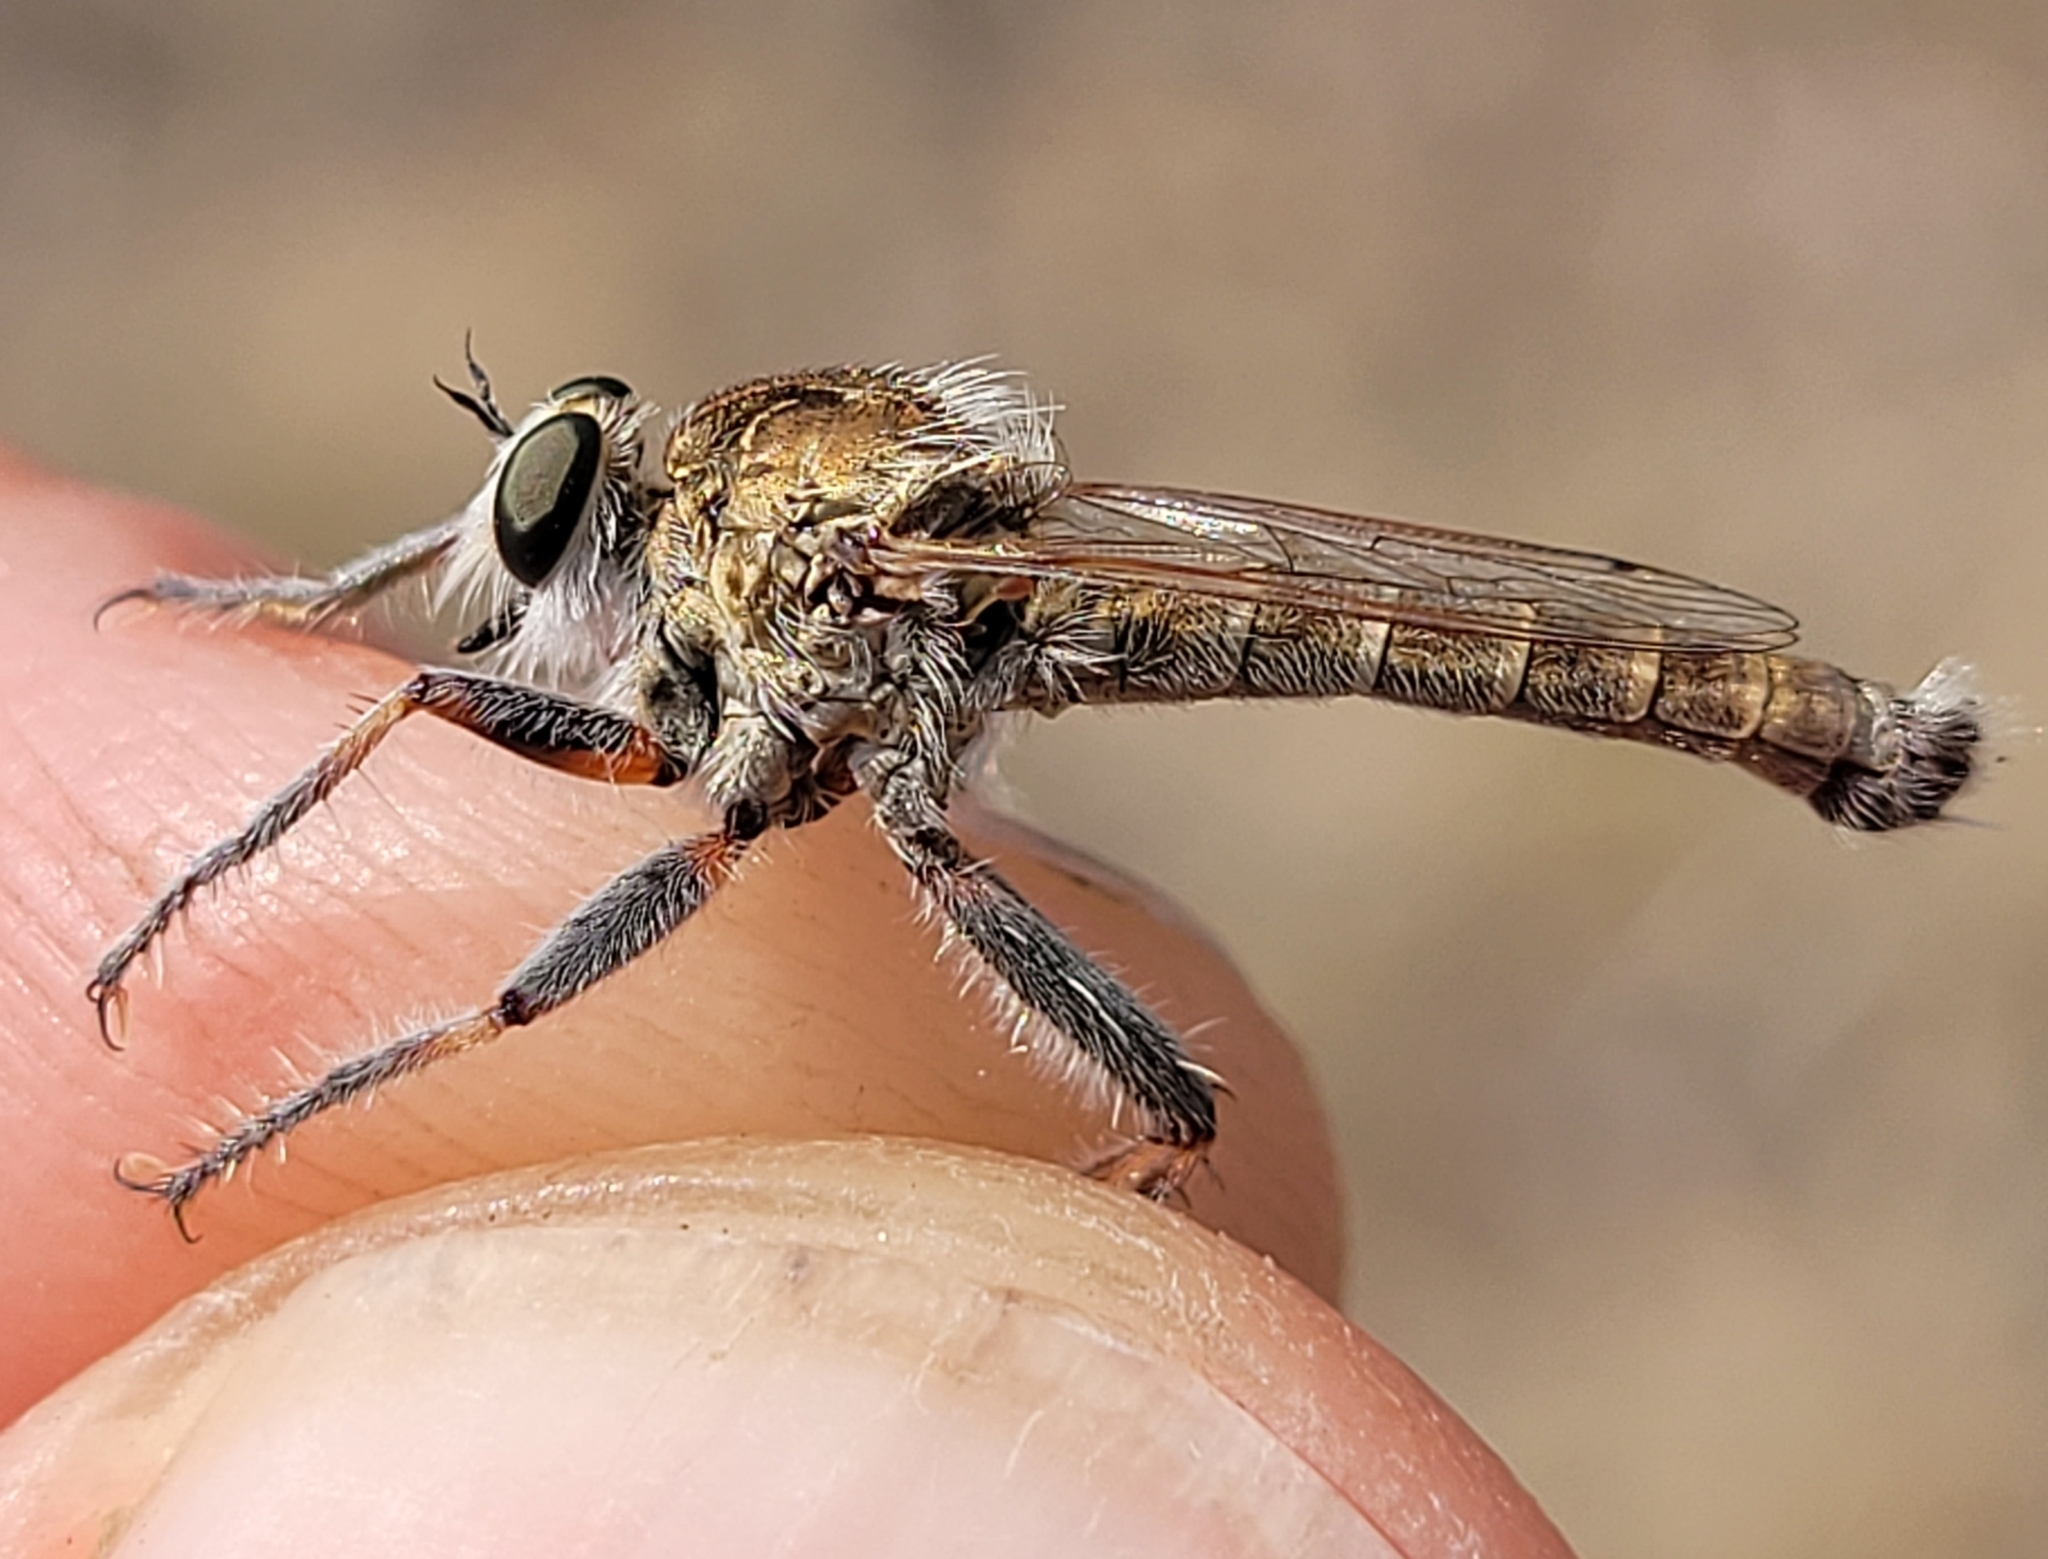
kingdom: Animalia
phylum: Arthropoda
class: Insecta
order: Diptera
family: Asilidae
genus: Proctacanthella
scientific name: Proctacanthella cacopiloga
